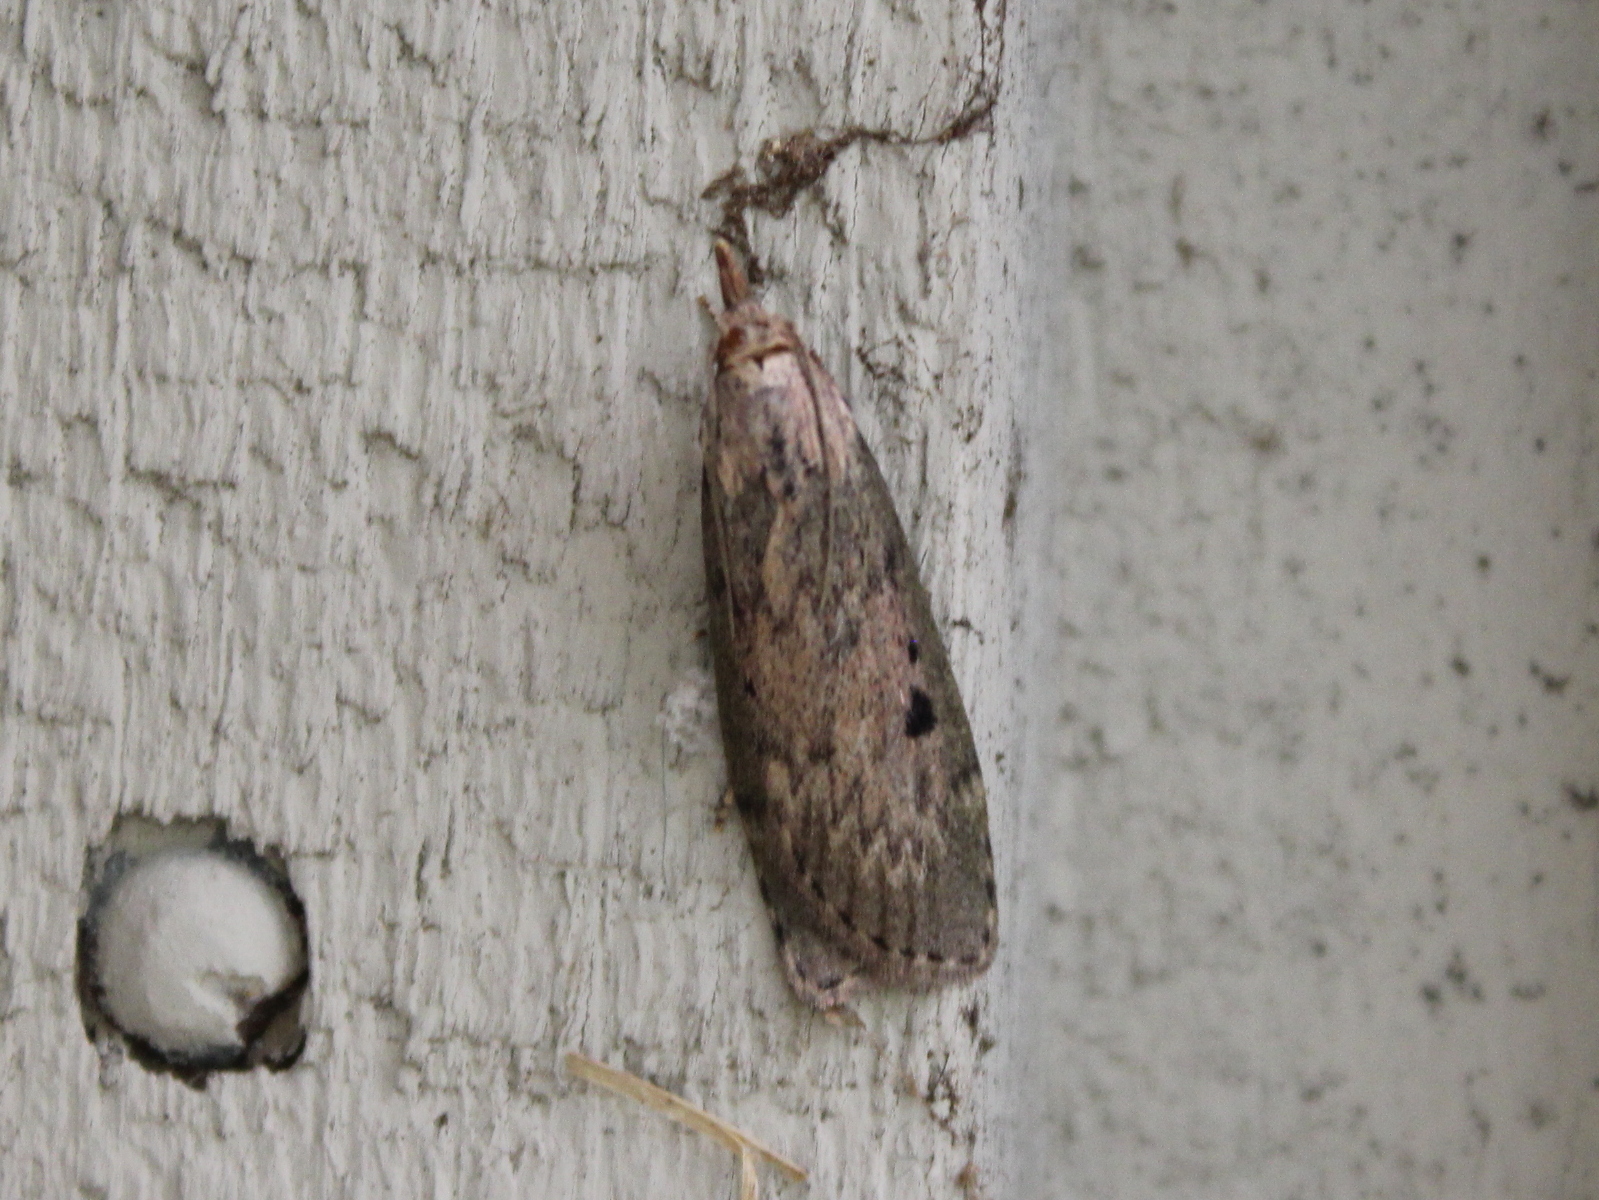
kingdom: Animalia
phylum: Arthropoda
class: Insecta
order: Lepidoptera
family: Pyralidae
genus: Aphomia
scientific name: Aphomia sociella
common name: Bee moth
